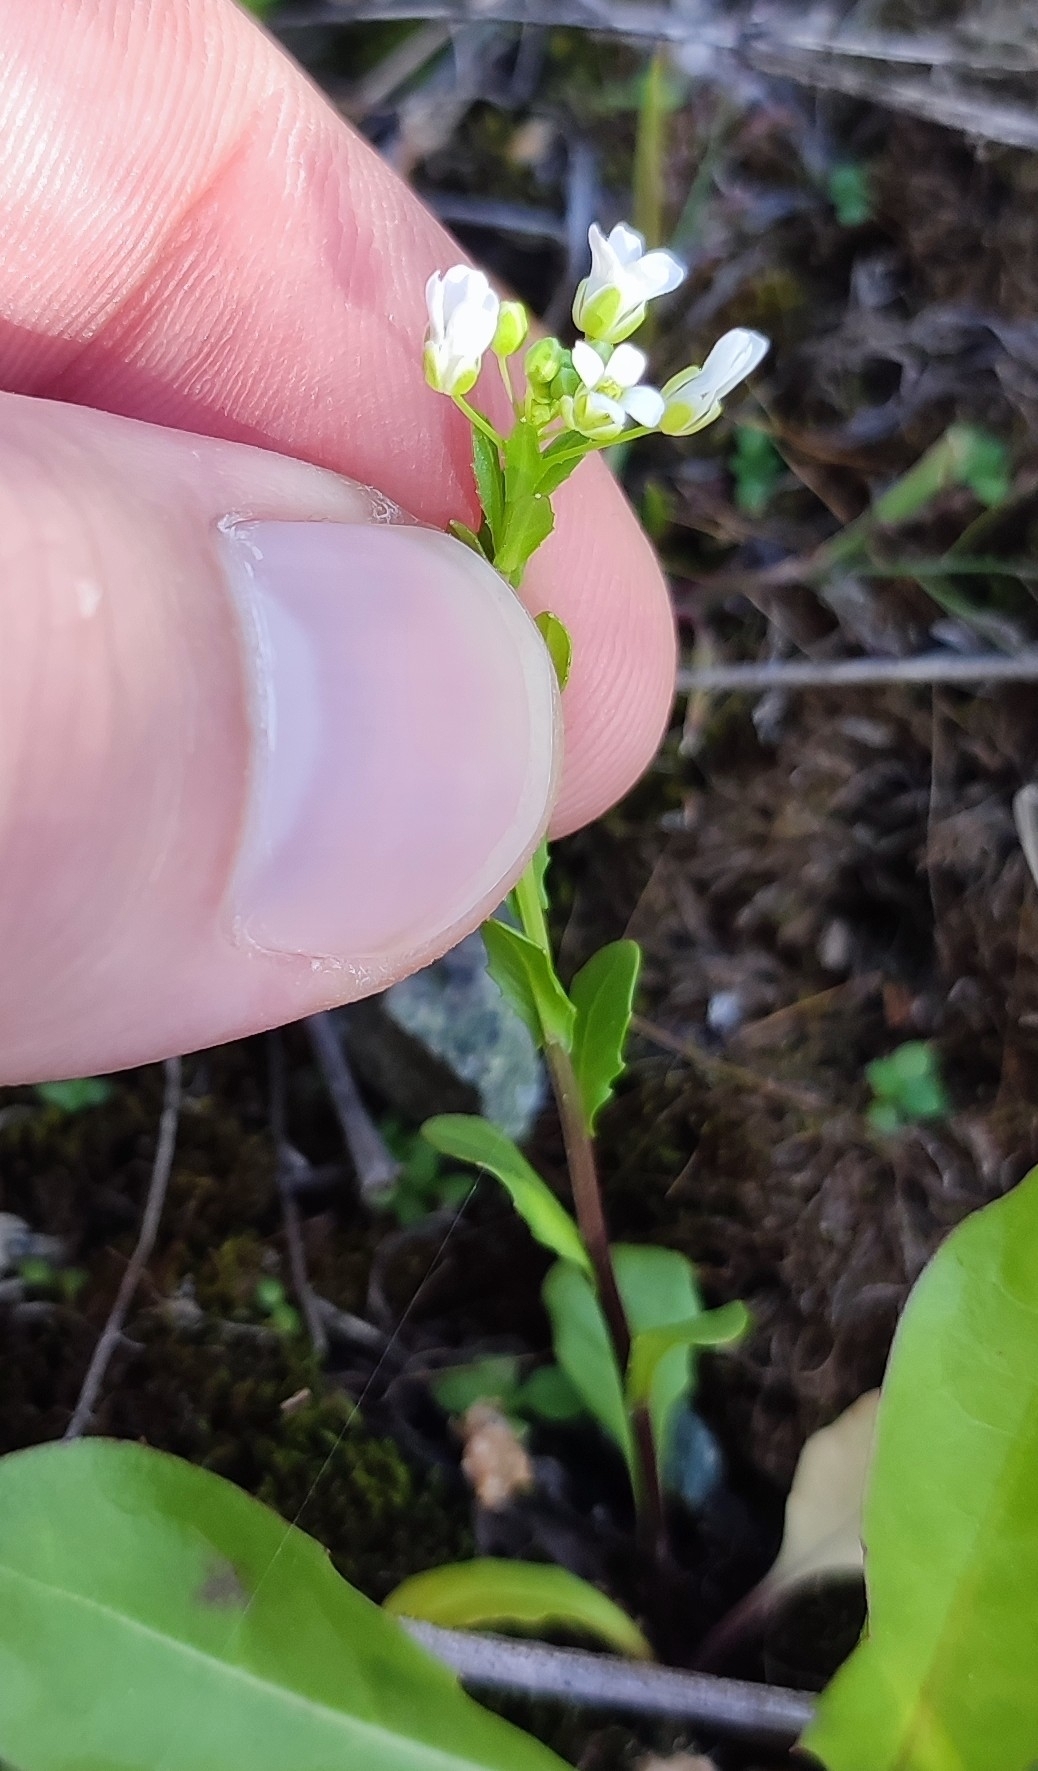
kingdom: Plantae
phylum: Tracheophyta
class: Magnoliopsida
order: Brassicales
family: Brassicaceae
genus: Thlaspi
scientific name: Thlaspi arvense
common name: Field pennycress
